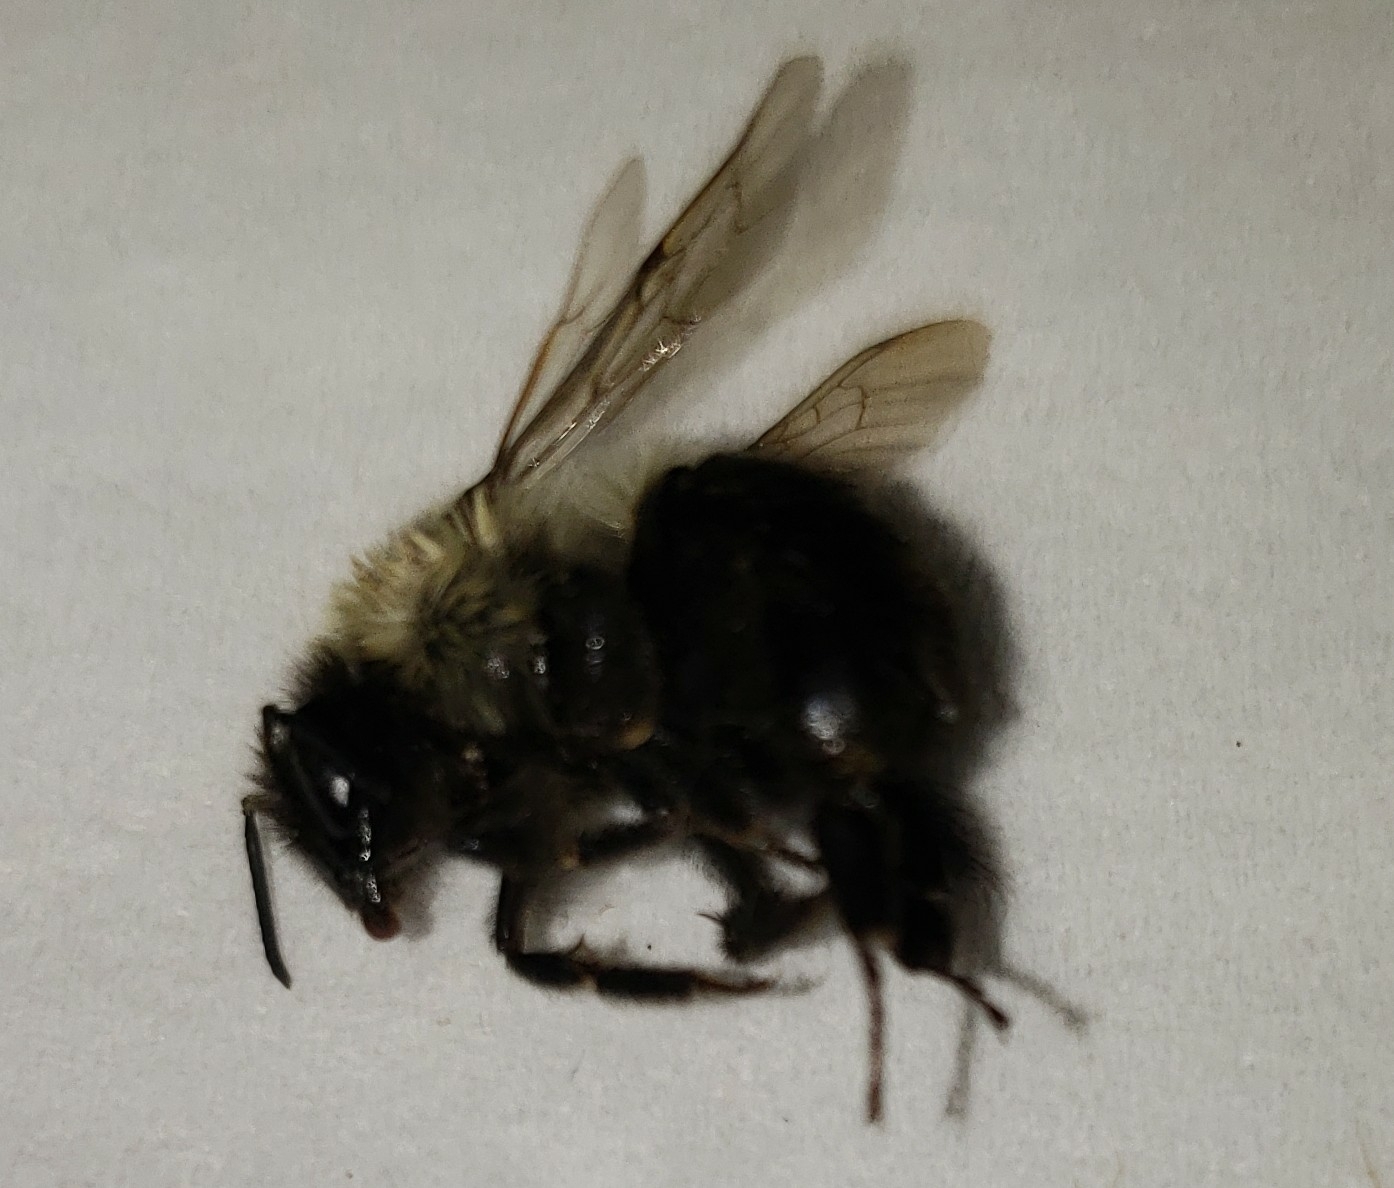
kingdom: Animalia
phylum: Arthropoda
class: Insecta
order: Hymenoptera
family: Apidae
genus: Bombus
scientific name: Bombus impatiens
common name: Common eastern bumble bee
